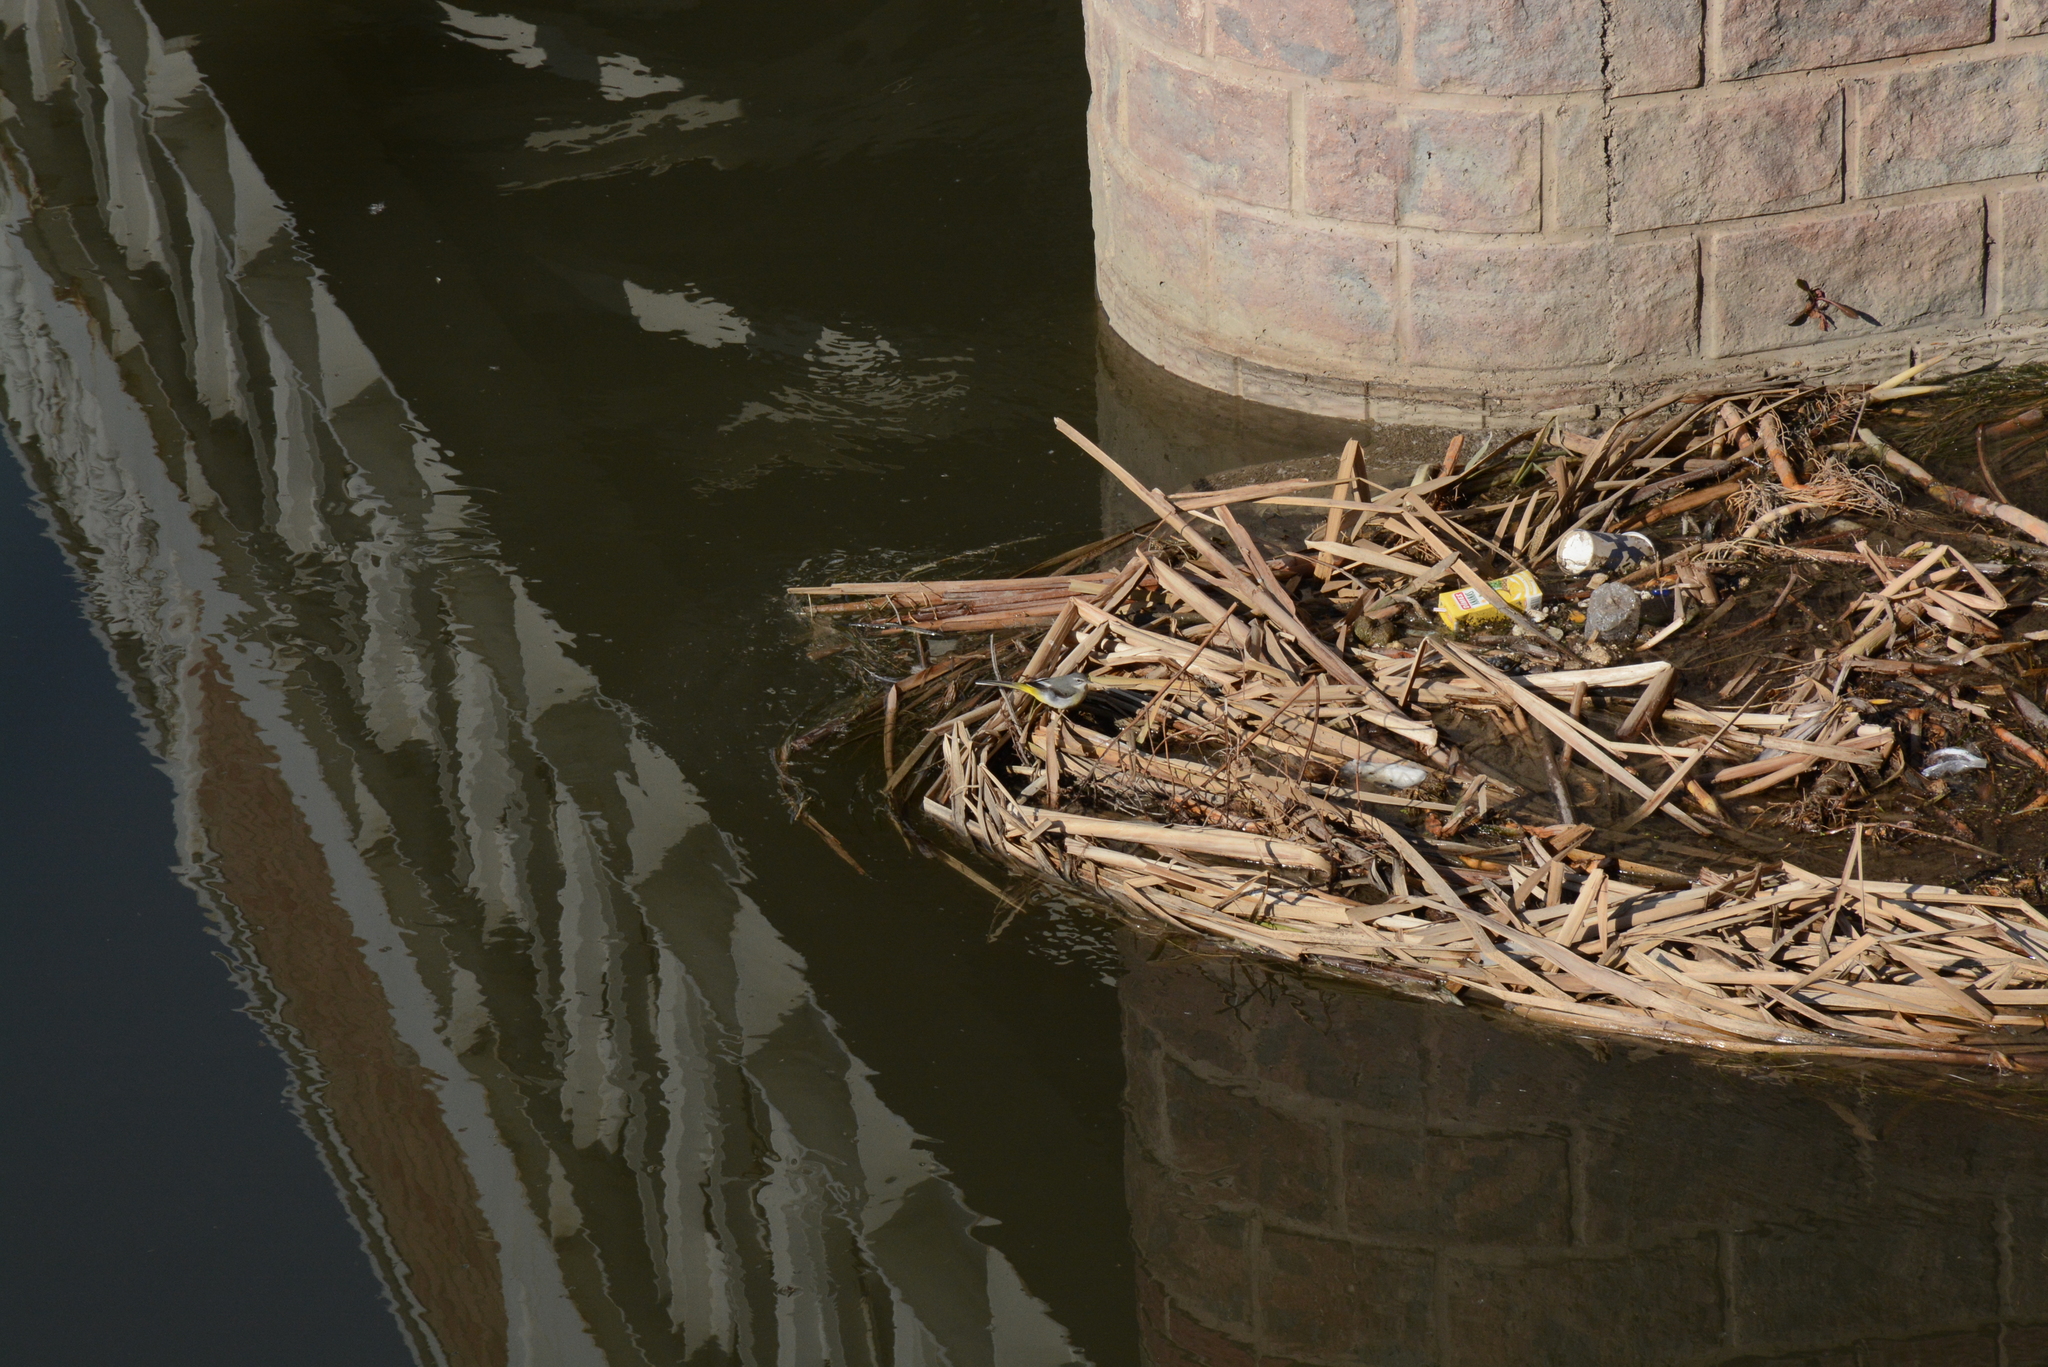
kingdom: Animalia
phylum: Chordata
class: Aves
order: Passeriformes
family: Motacillidae
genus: Motacilla
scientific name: Motacilla cinerea
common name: Grey wagtail
